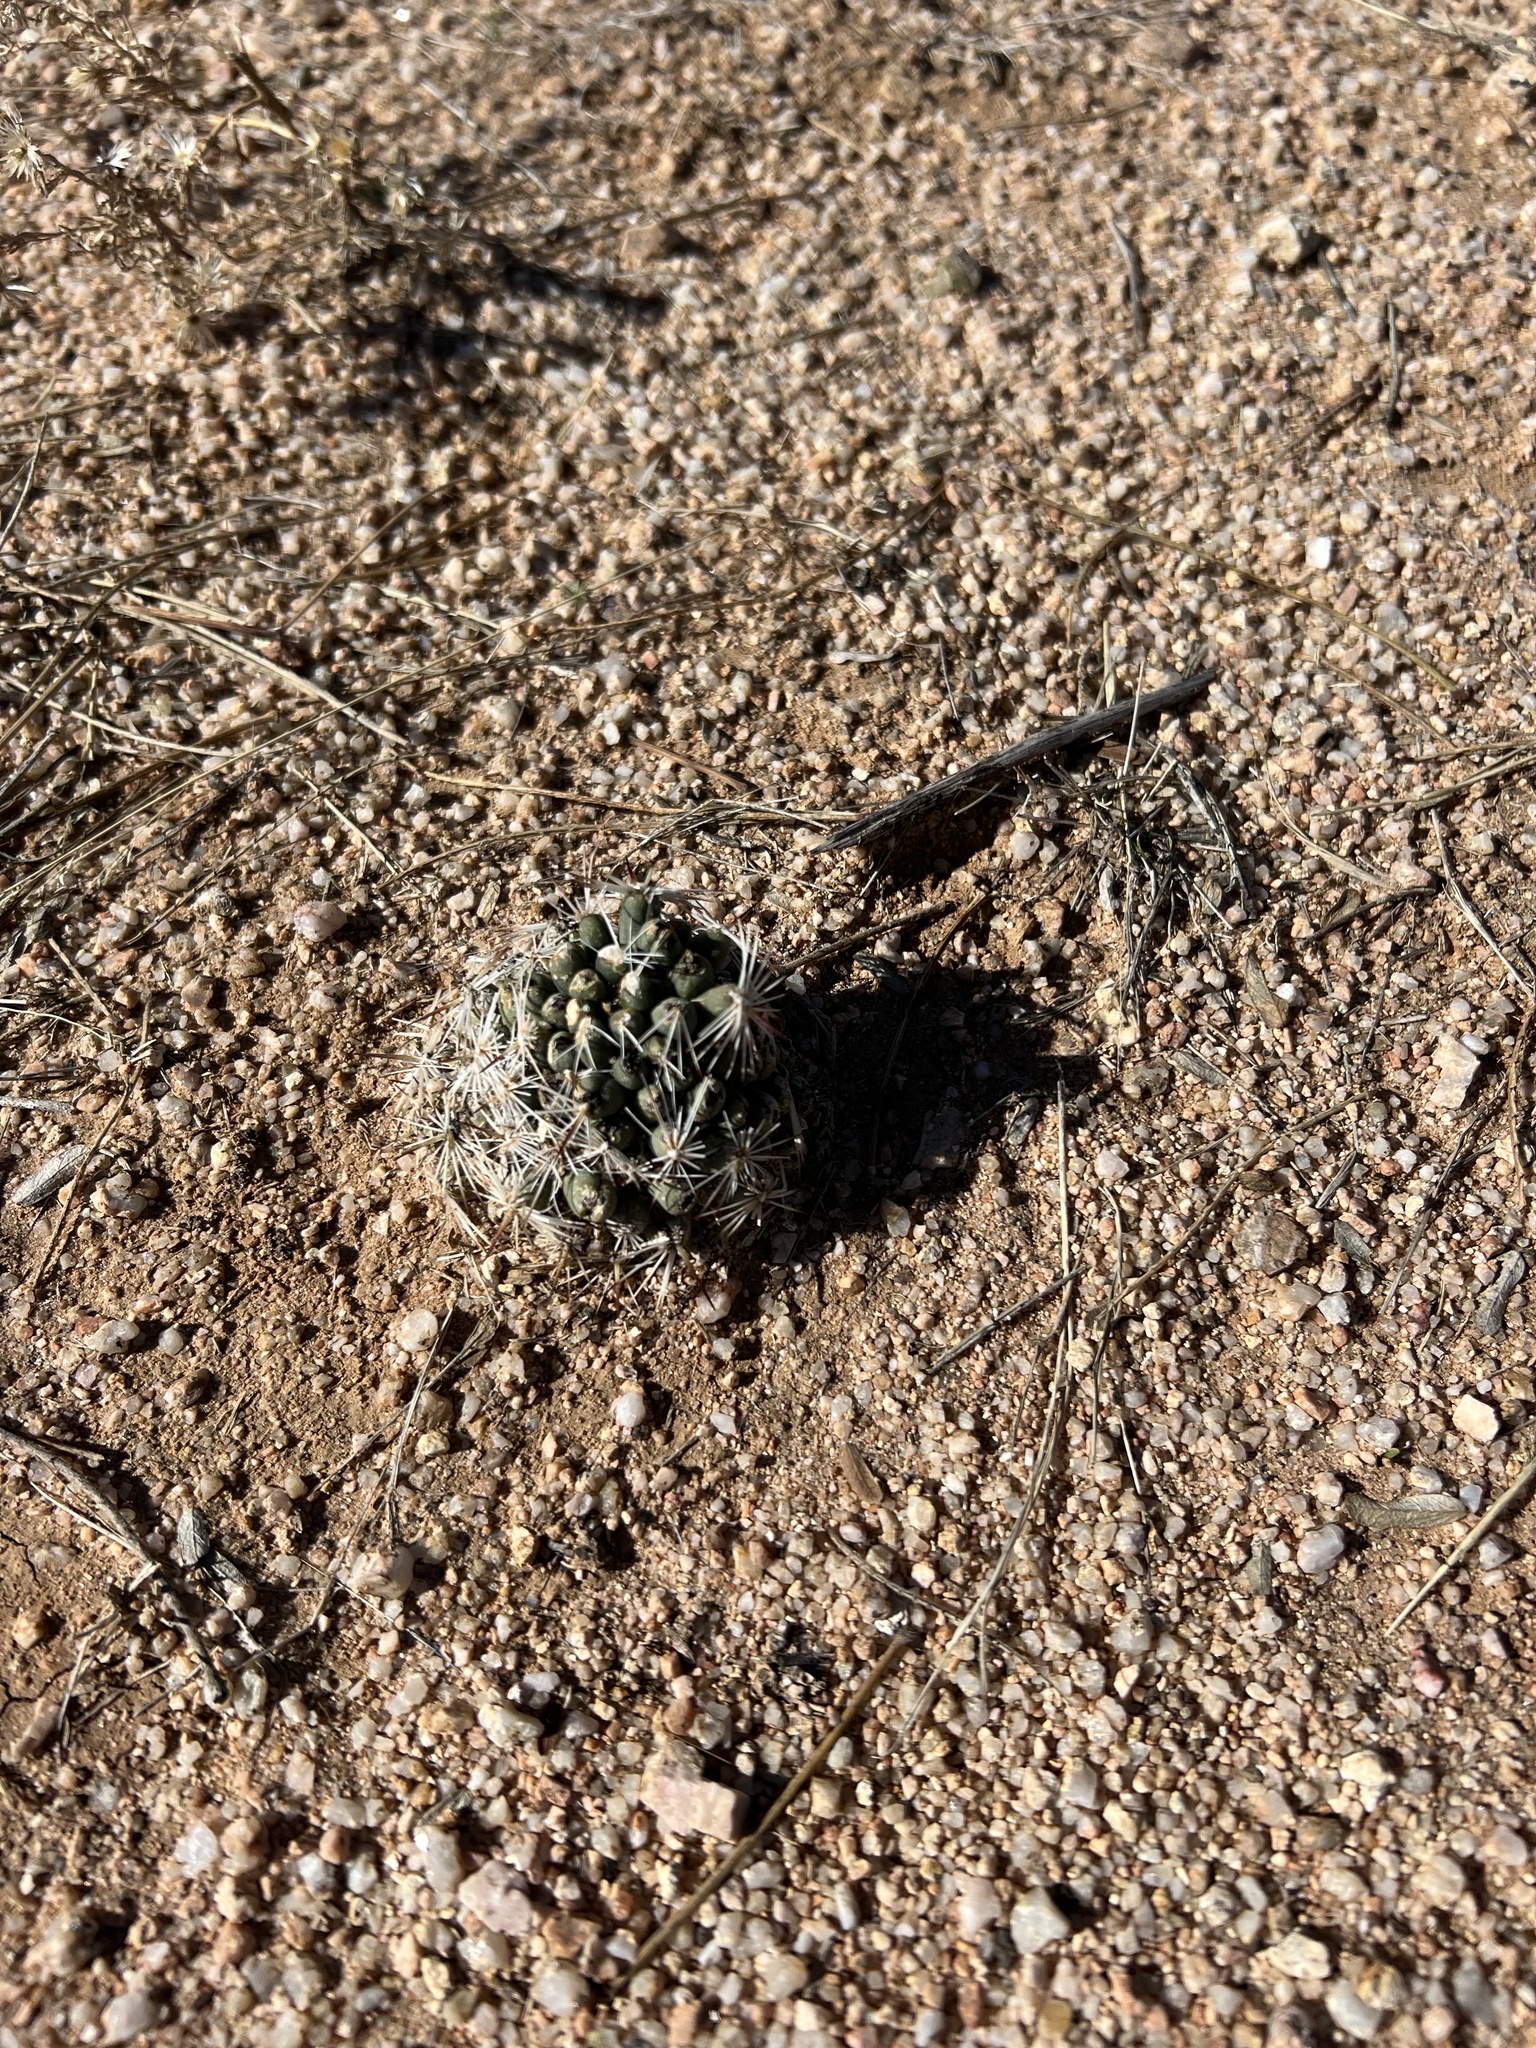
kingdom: Plantae
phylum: Tracheophyta
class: Magnoliopsida
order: Caryophyllales
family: Cactaceae
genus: Pelecyphora
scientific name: Pelecyphora vivipara
